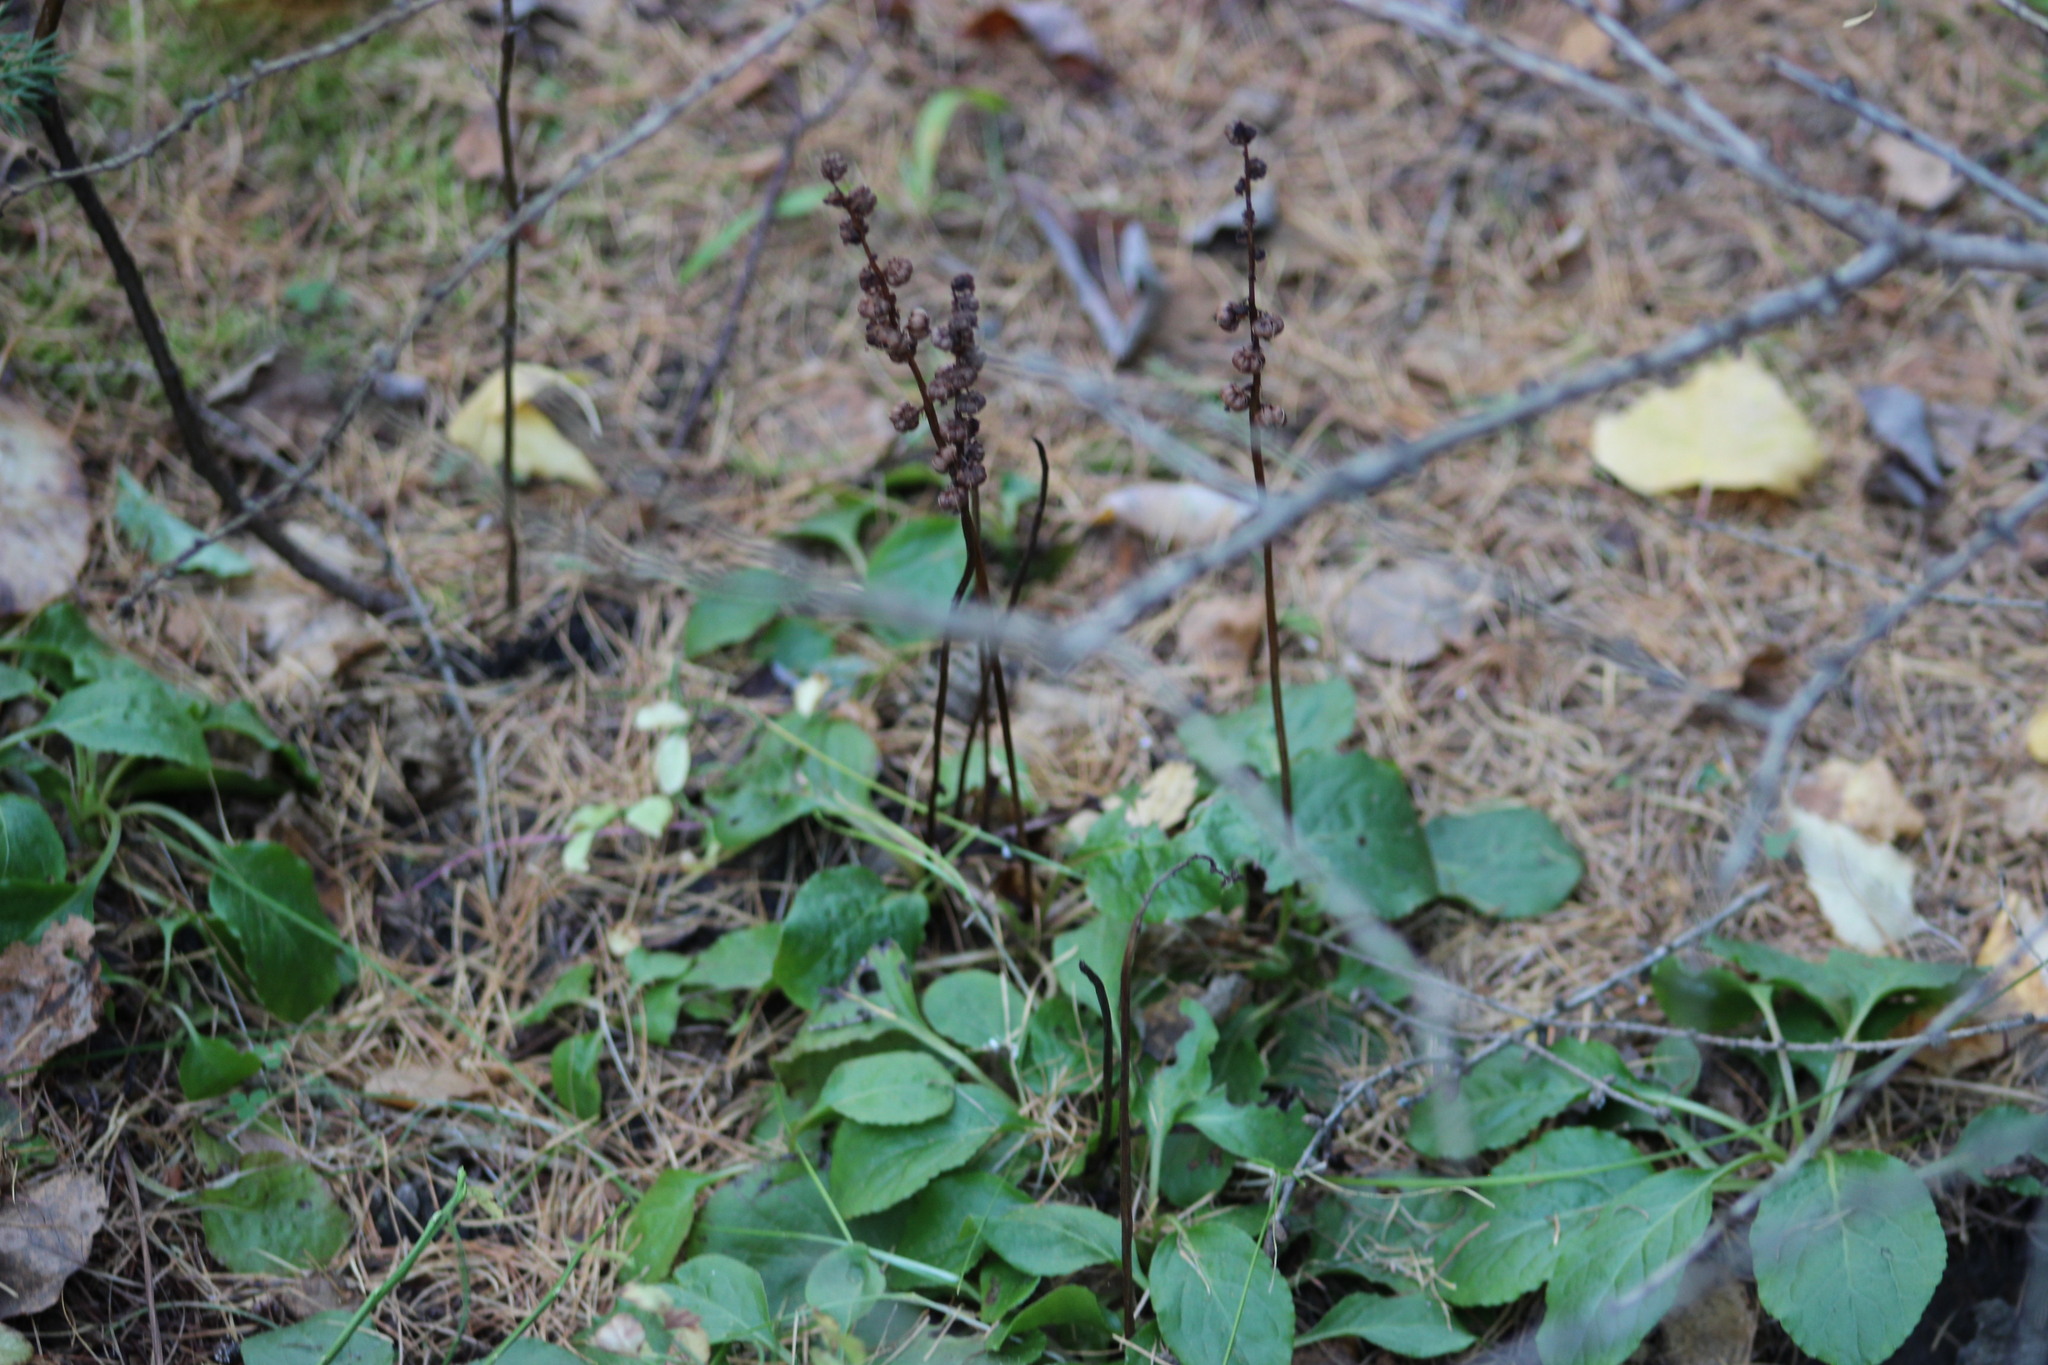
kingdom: Plantae
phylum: Tracheophyta
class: Magnoliopsida
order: Ericales
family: Ericaceae
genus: Pyrola
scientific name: Pyrola minor
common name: Common wintergreen
